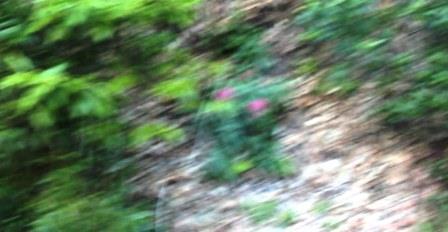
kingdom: Plantae
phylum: Tracheophyta
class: Magnoliopsida
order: Dipsacales
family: Caprifoliaceae
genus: Centranthus
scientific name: Centranthus ruber
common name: Red valerian
